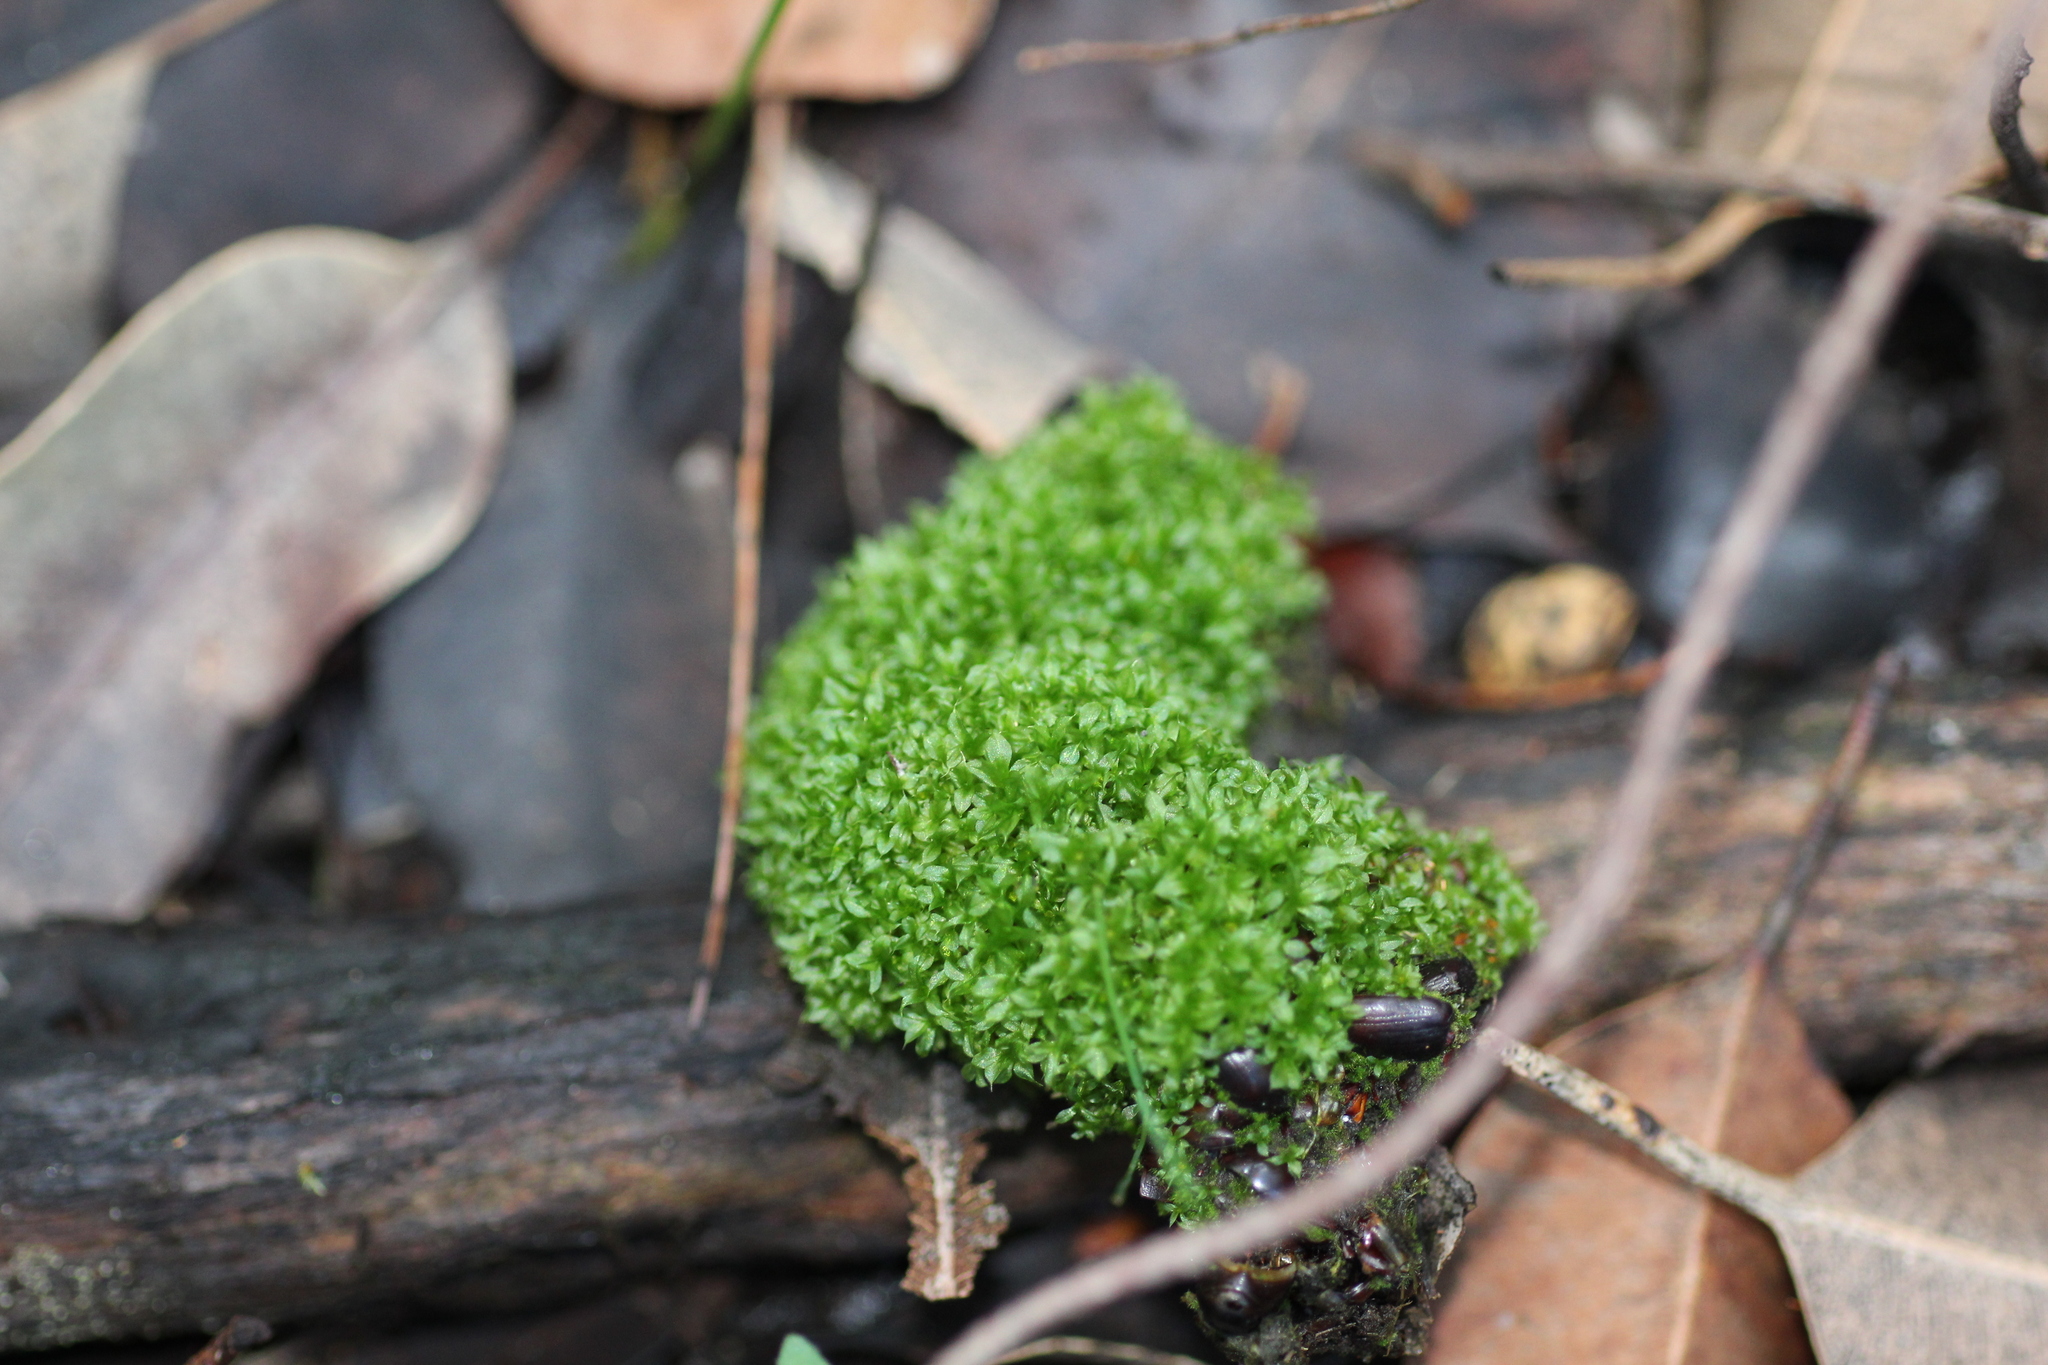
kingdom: Plantae
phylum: Bryophyta
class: Bryopsida
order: Splachnales
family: Splachnaceae
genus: Tayloria
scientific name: Tayloria octoblephara
